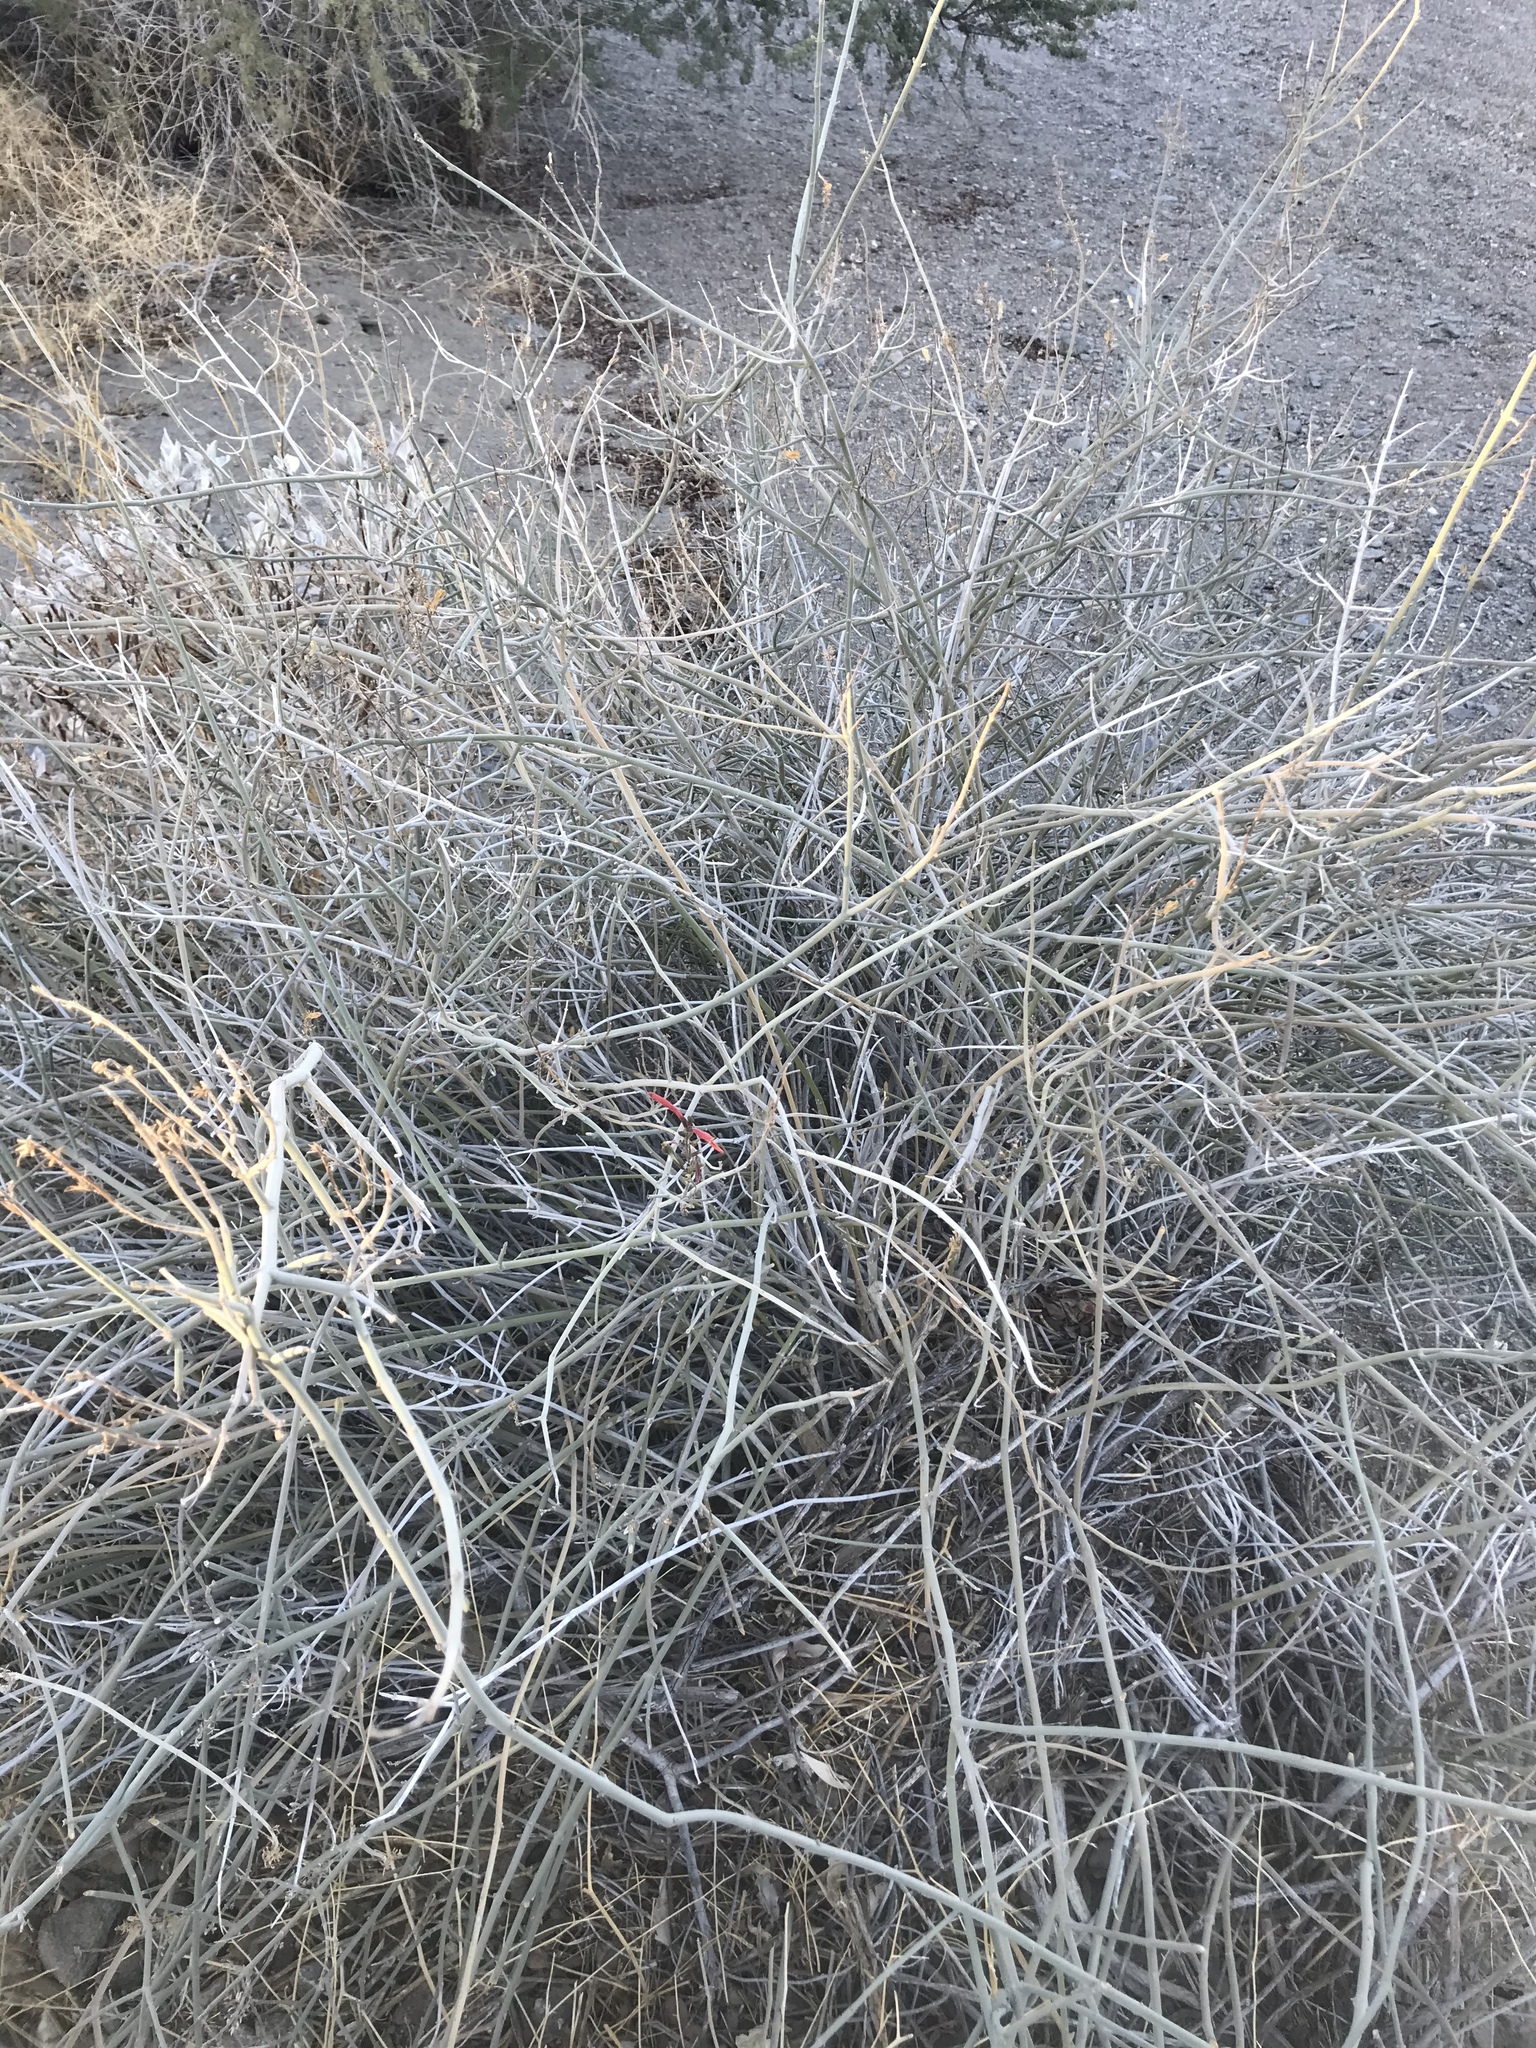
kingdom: Plantae
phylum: Tracheophyta
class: Magnoliopsida
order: Lamiales
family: Acanthaceae
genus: Justicia
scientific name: Justicia californica
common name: Chuparosa-honeysuckle
